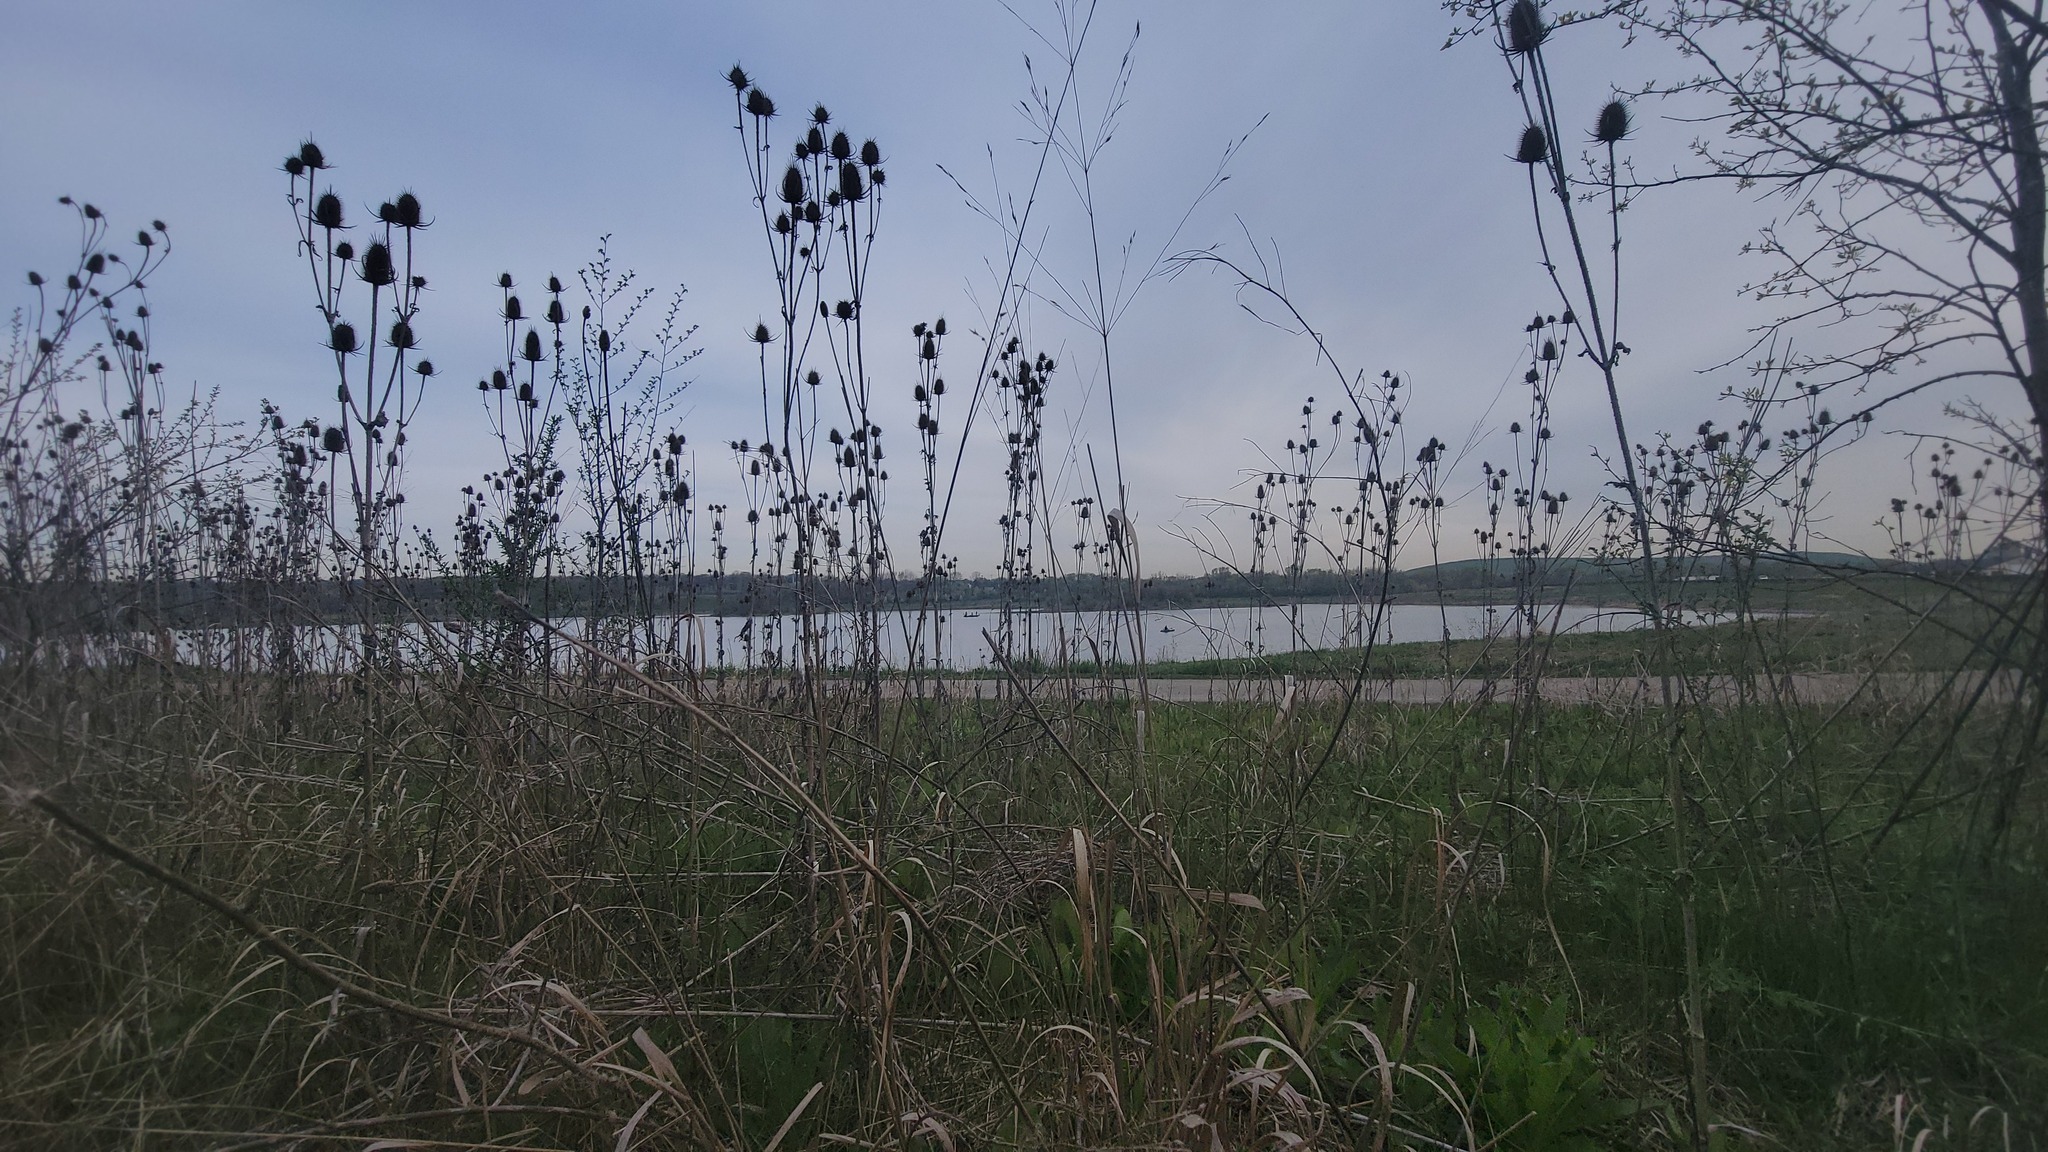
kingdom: Plantae
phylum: Tracheophyta
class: Magnoliopsida
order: Dipsacales
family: Caprifoliaceae
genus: Dipsacus
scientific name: Dipsacus laciniatus
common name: Cut-leaved teasel
